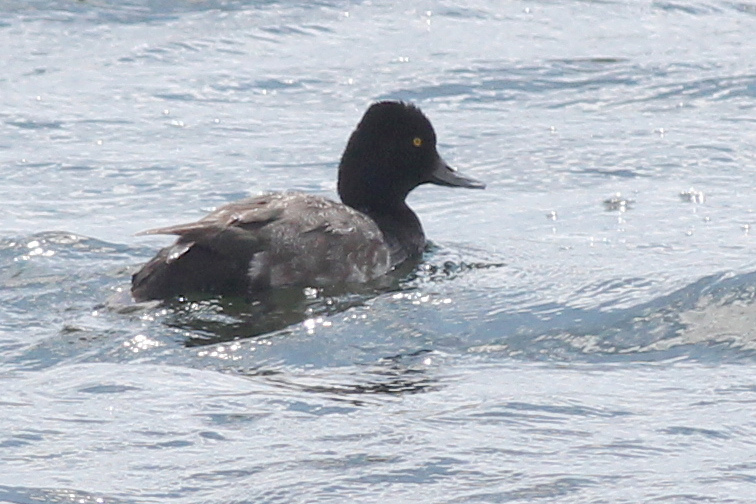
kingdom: Animalia
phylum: Chordata
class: Aves
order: Anseriformes
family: Anatidae
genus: Aythya
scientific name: Aythya affinis
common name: Lesser scaup
